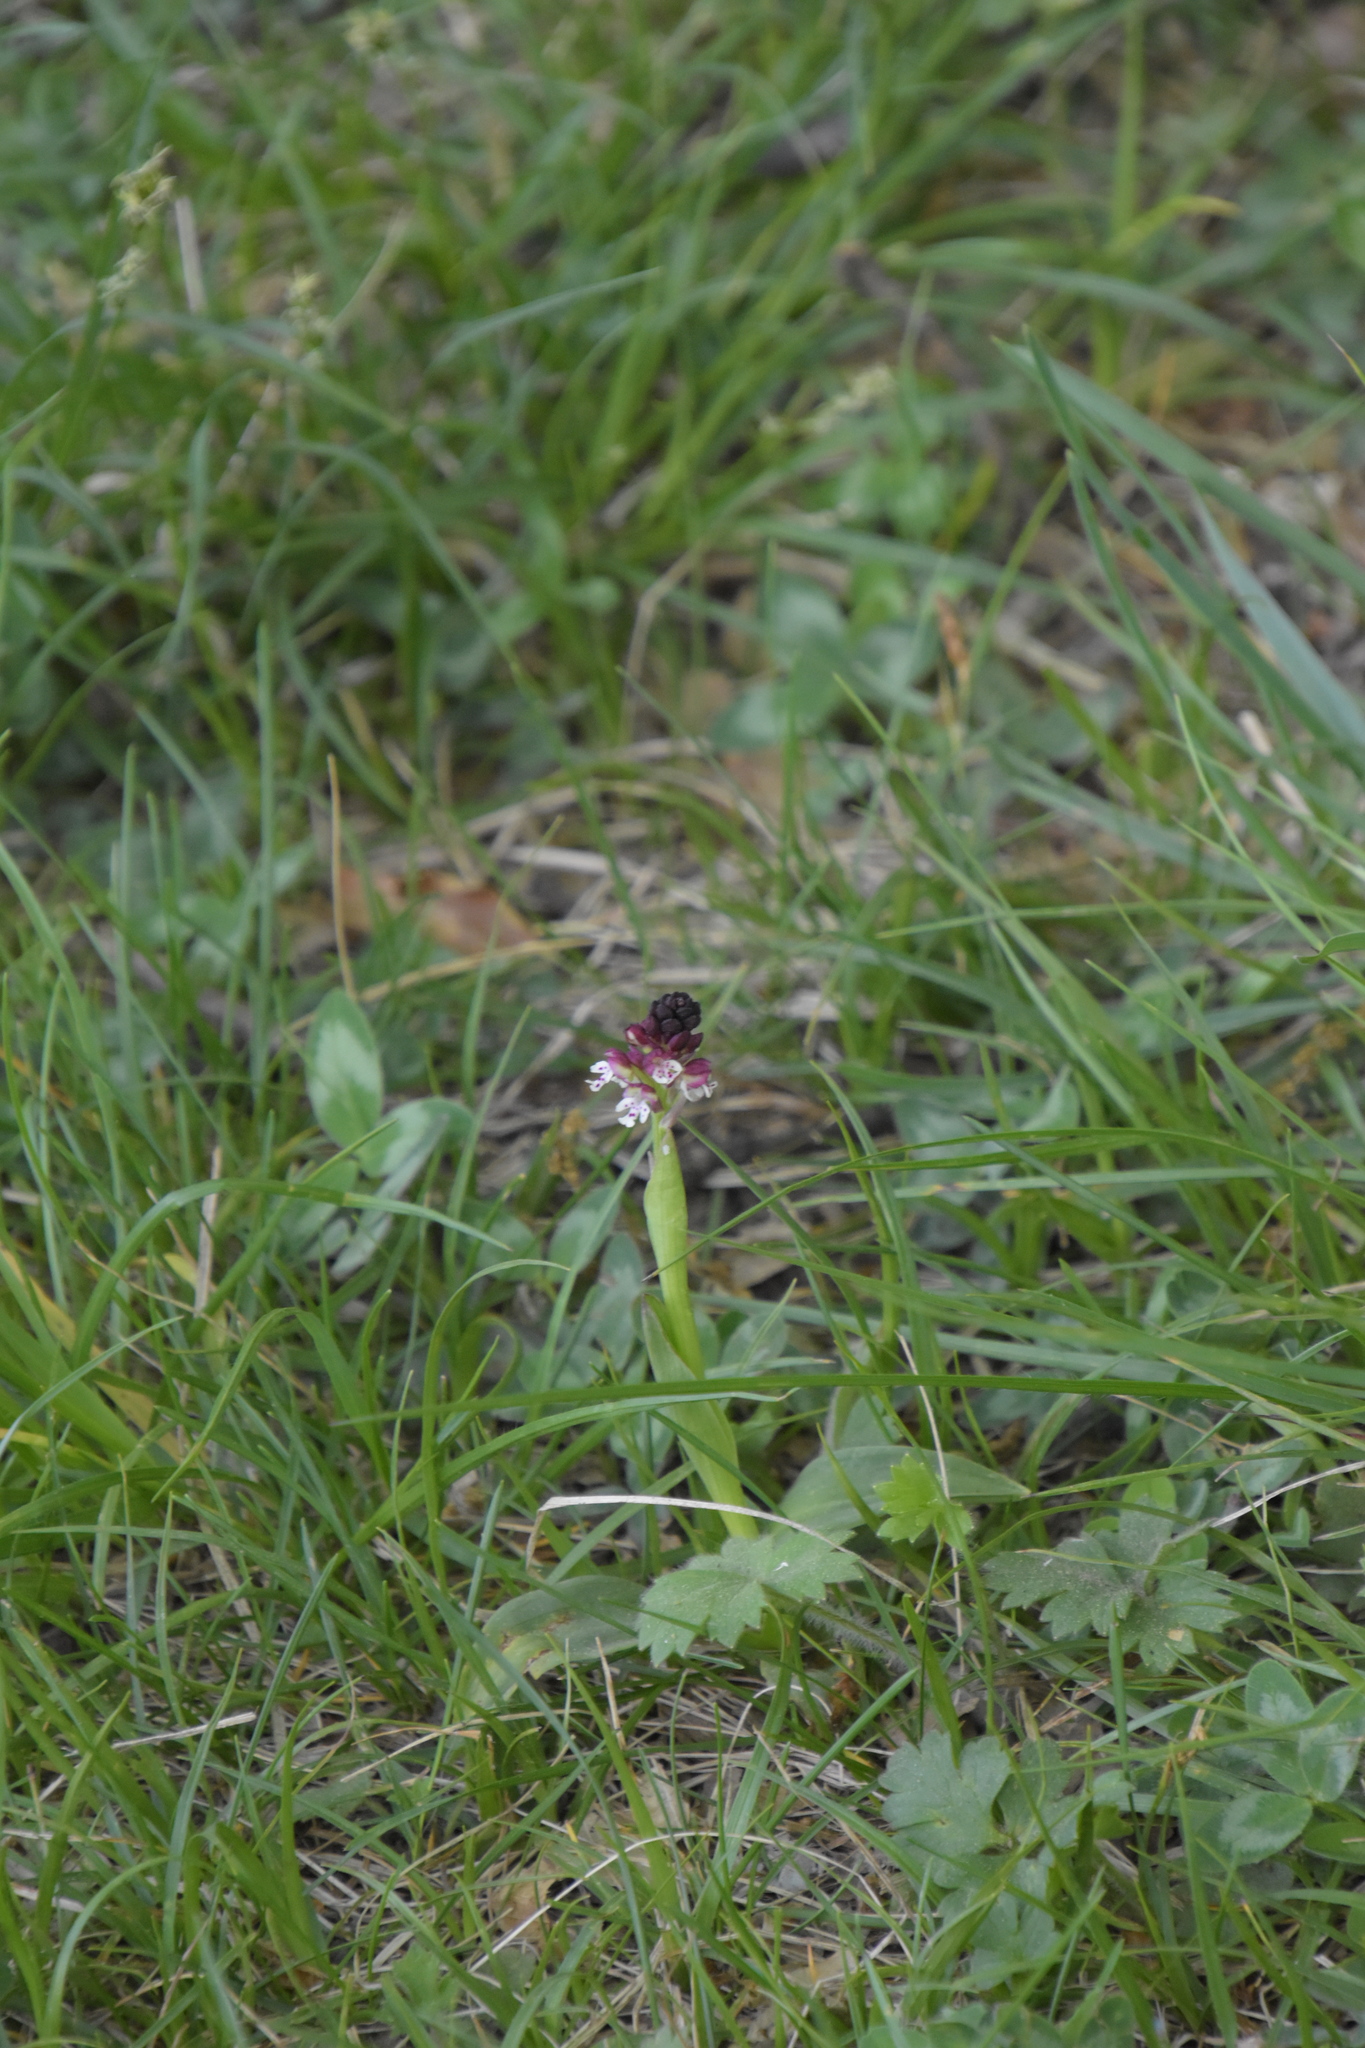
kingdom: Plantae
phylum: Tracheophyta
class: Liliopsida
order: Asparagales
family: Orchidaceae
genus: Neotinea
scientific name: Neotinea ustulata
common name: Burnt orchid
